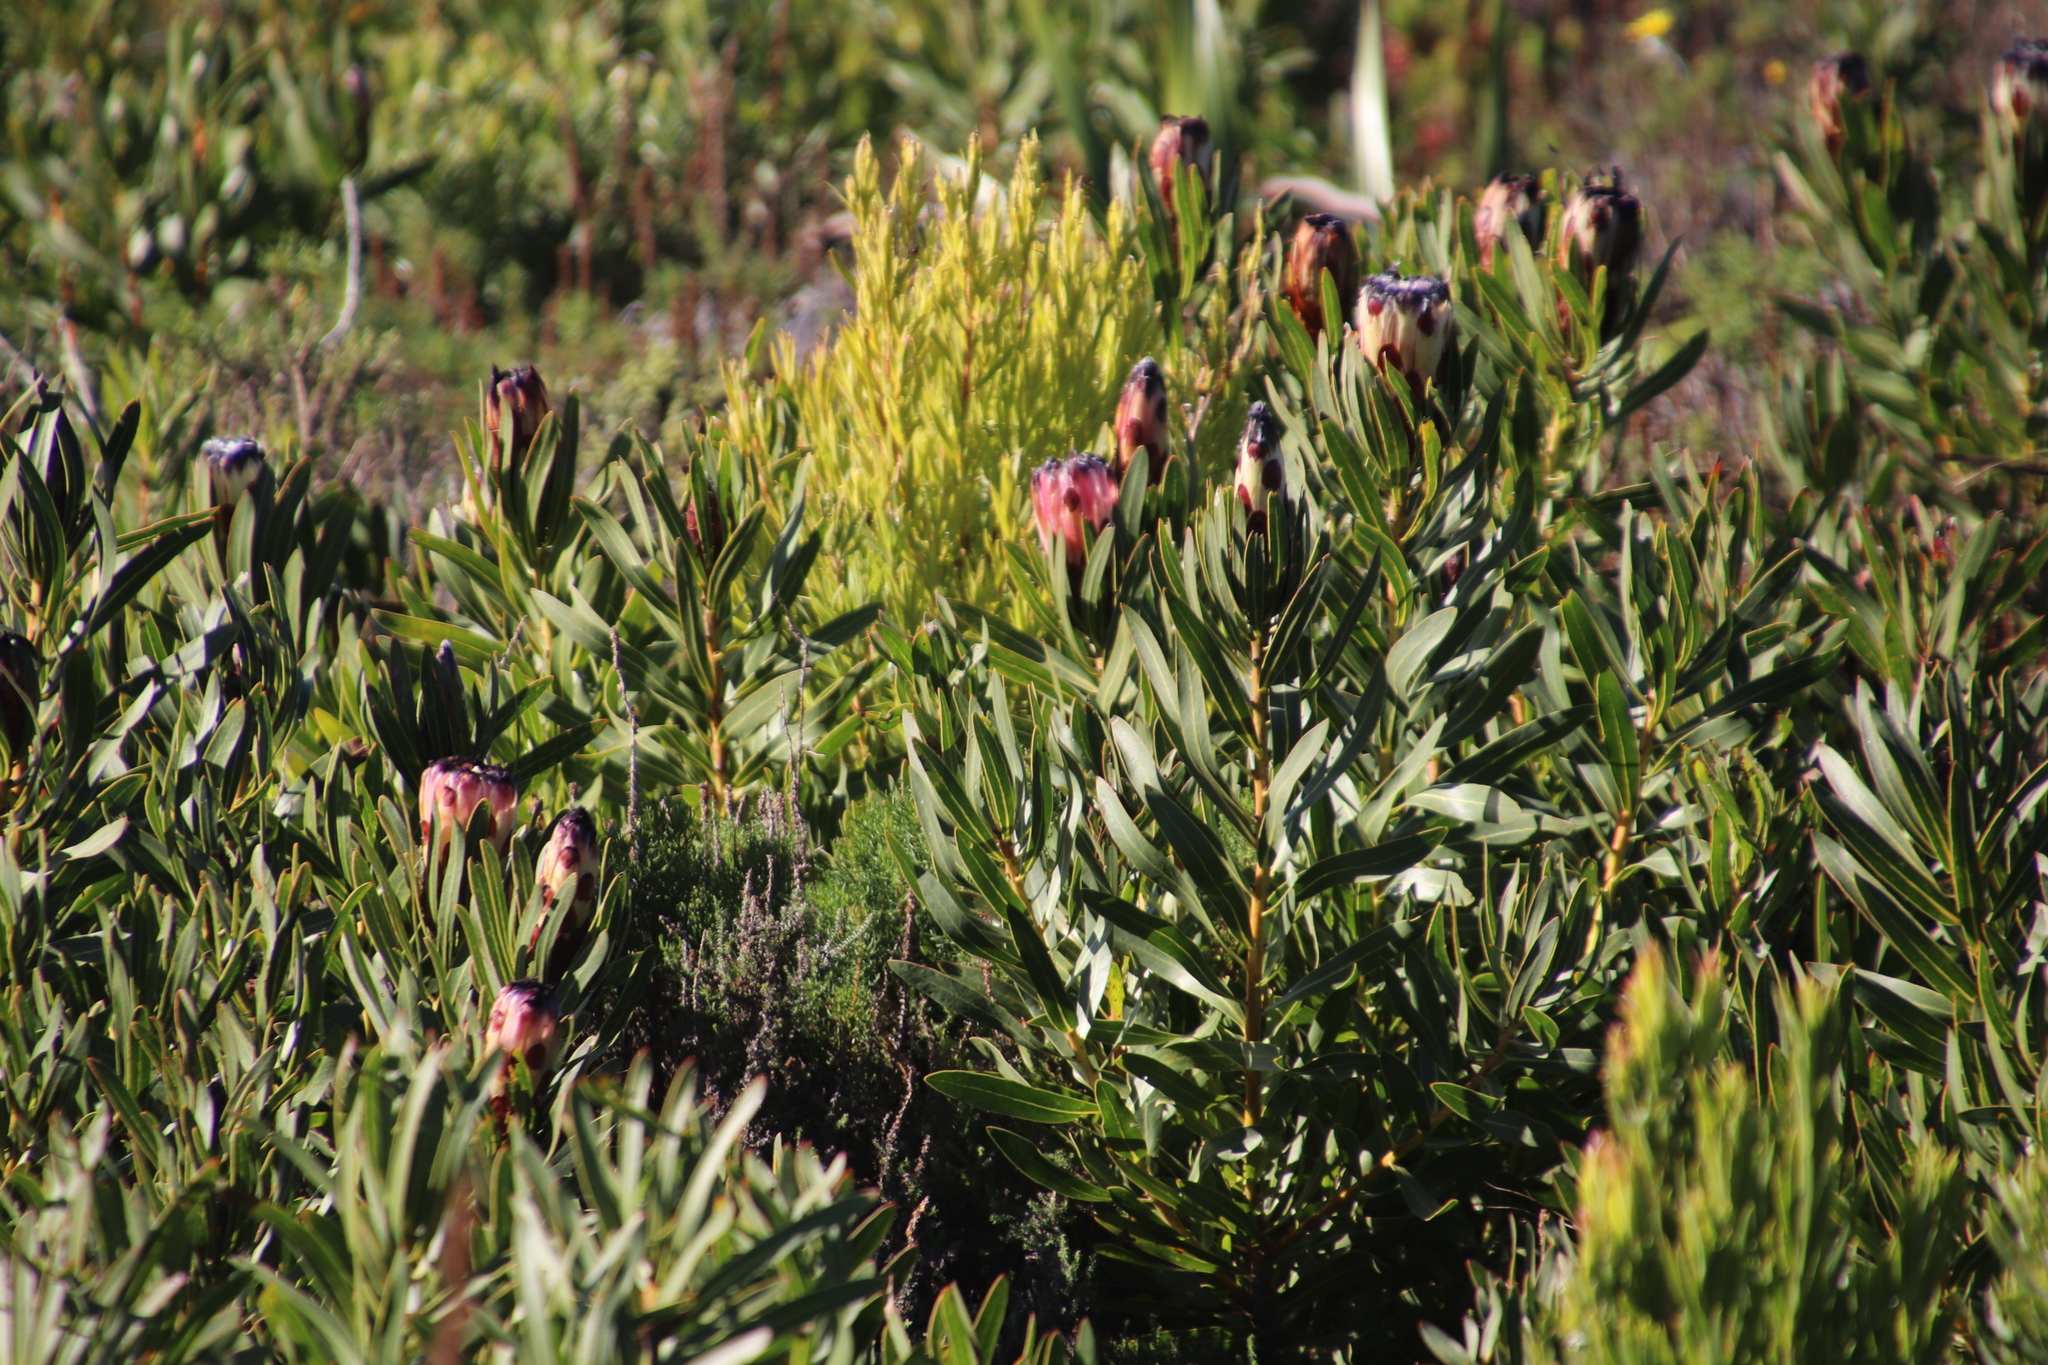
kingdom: Plantae
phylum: Tracheophyta
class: Magnoliopsida
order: Proteales
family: Proteaceae
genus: Protea
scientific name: Protea lepidocarpodendron
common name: Black-bearded protea
